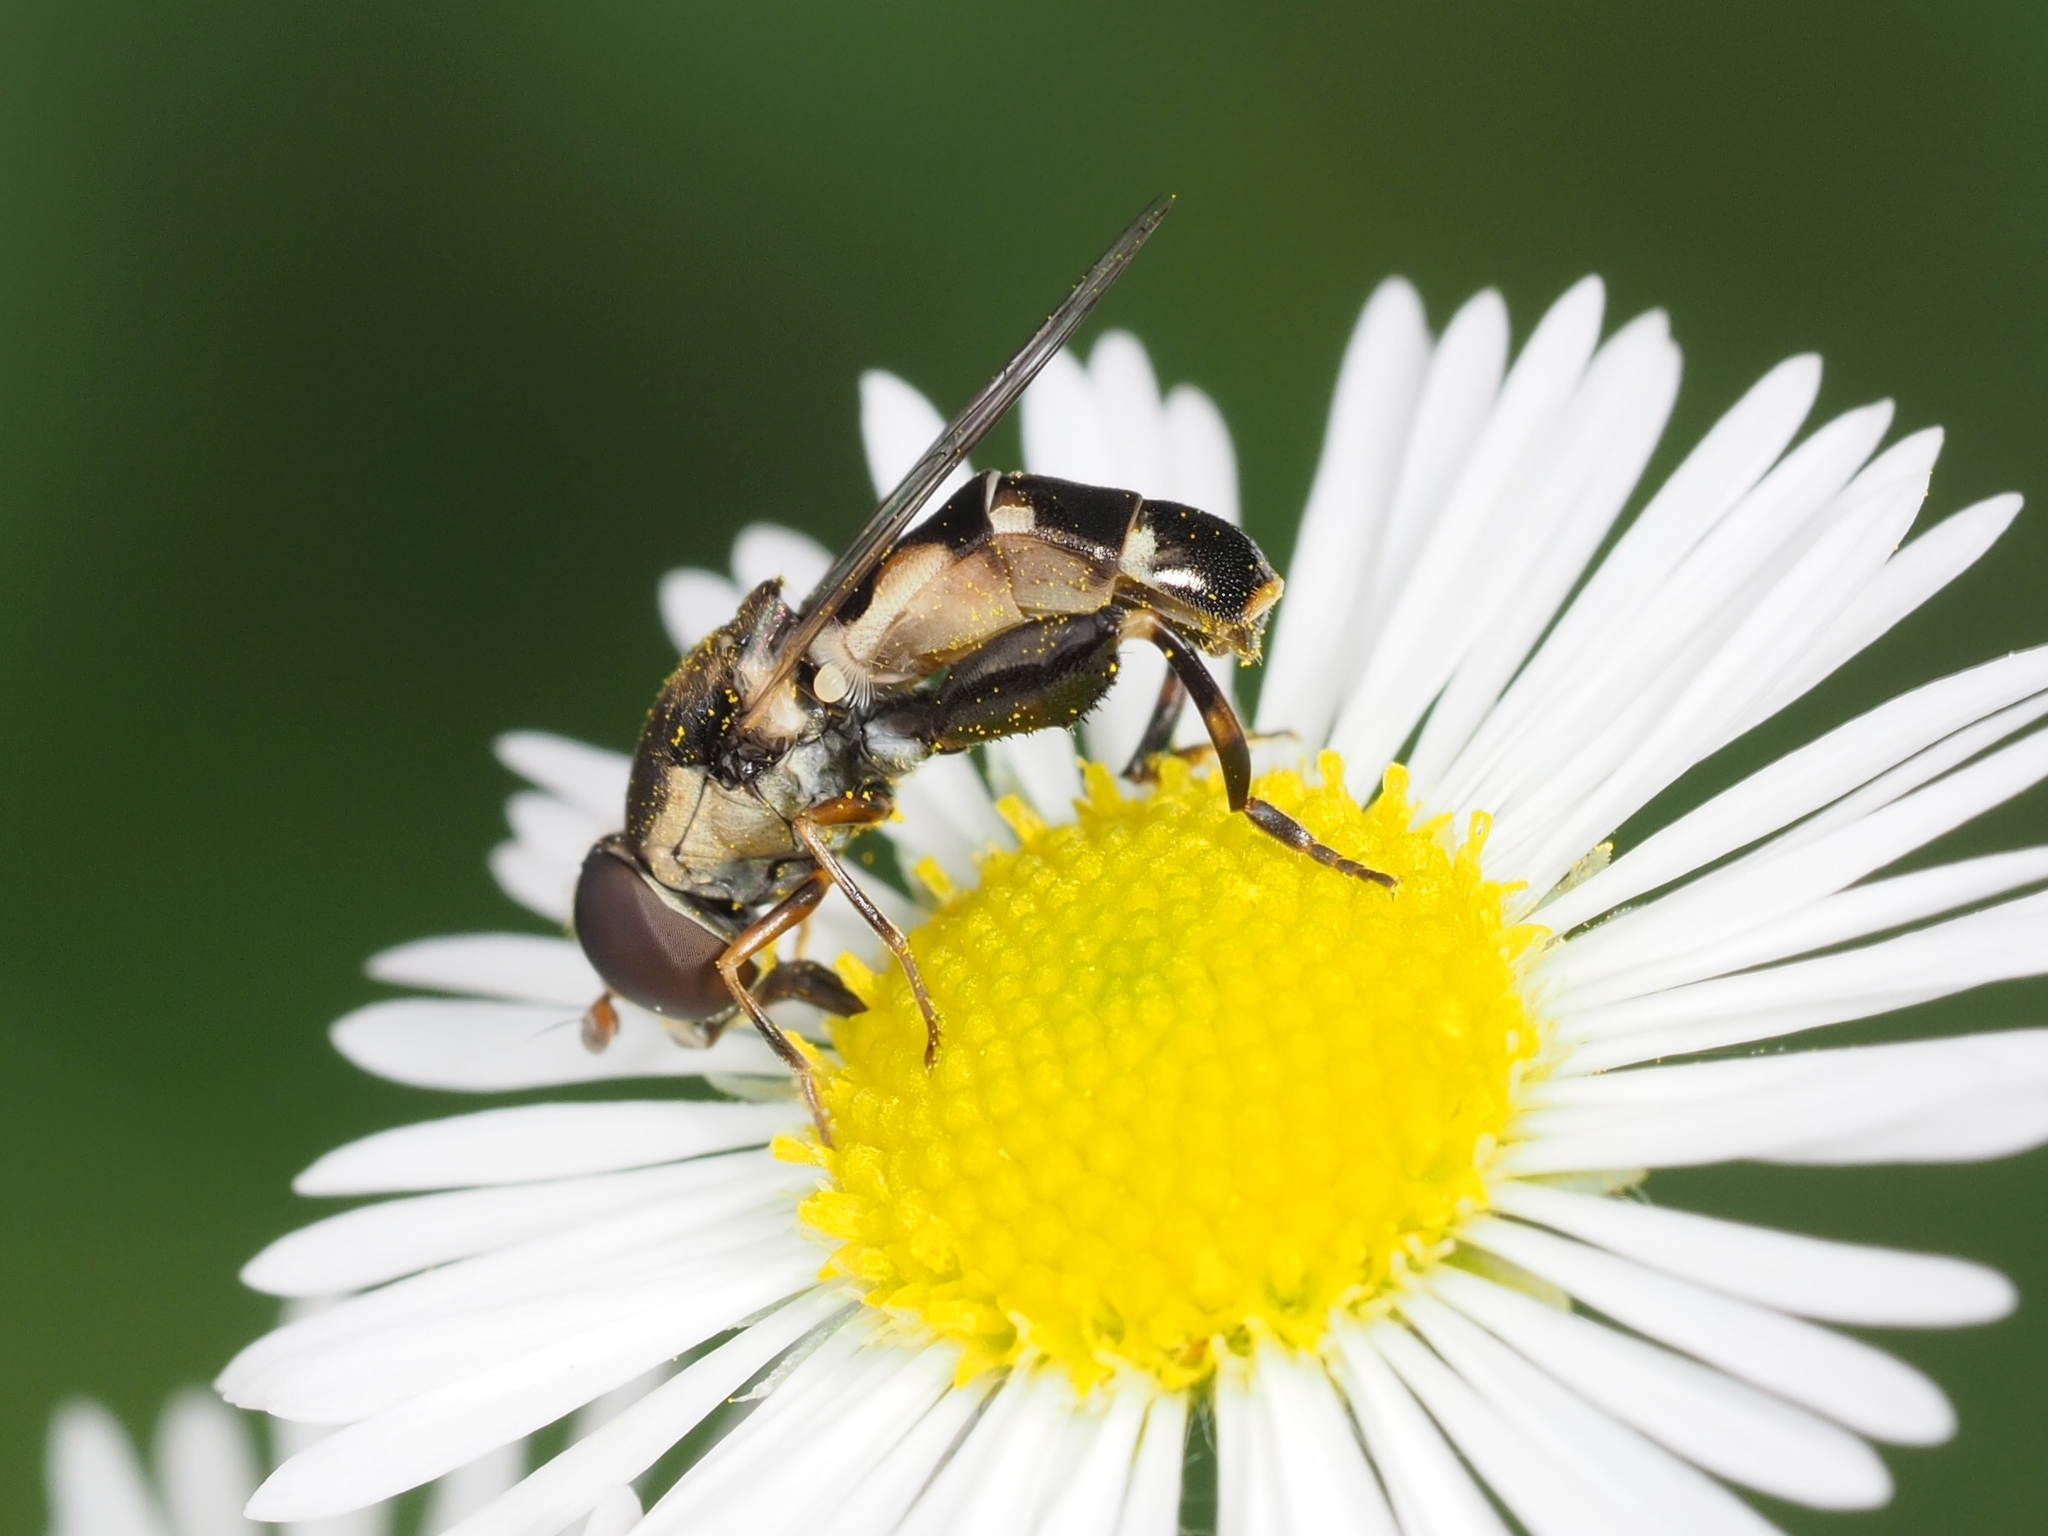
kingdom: Animalia
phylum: Arthropoda
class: Insecta
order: Diptera
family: Syrphidae
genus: Syritta
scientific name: Syritta pipiens
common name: Hover fly
